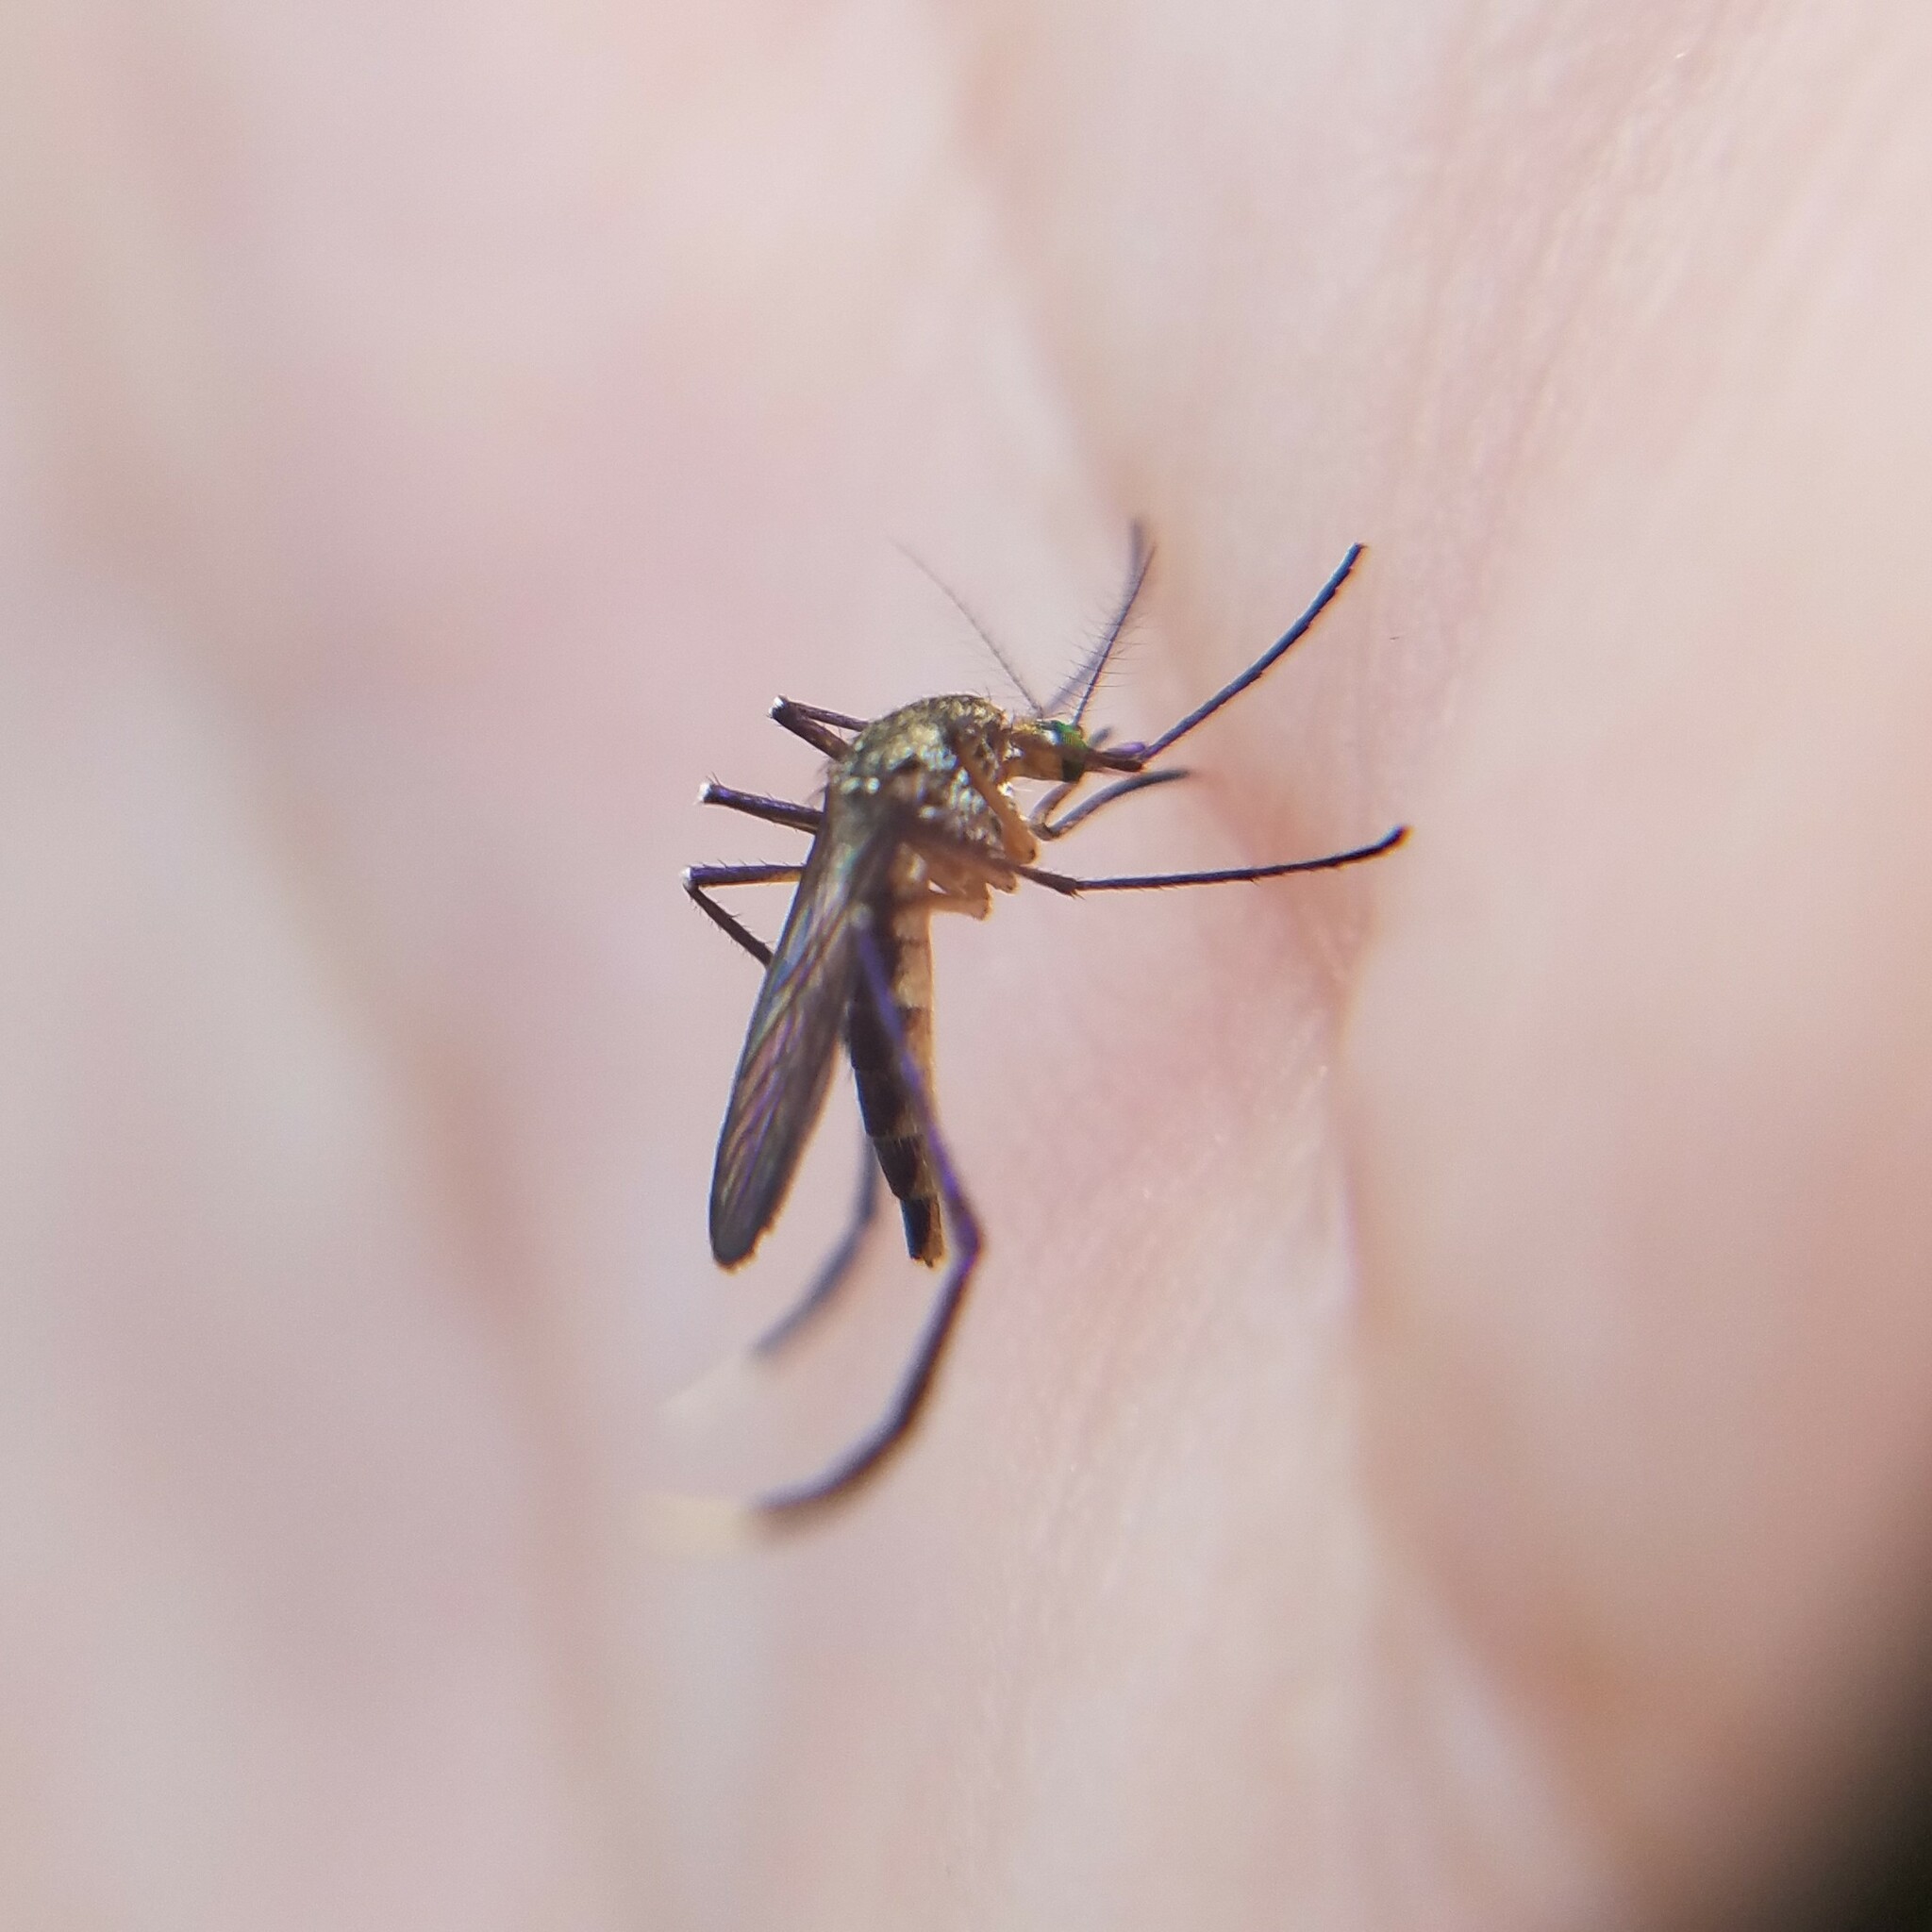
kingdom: Animalia
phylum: Arthropoda
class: Insecta
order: Diptera
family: Culicidae
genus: Psorophora
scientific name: Psorophora ferox
